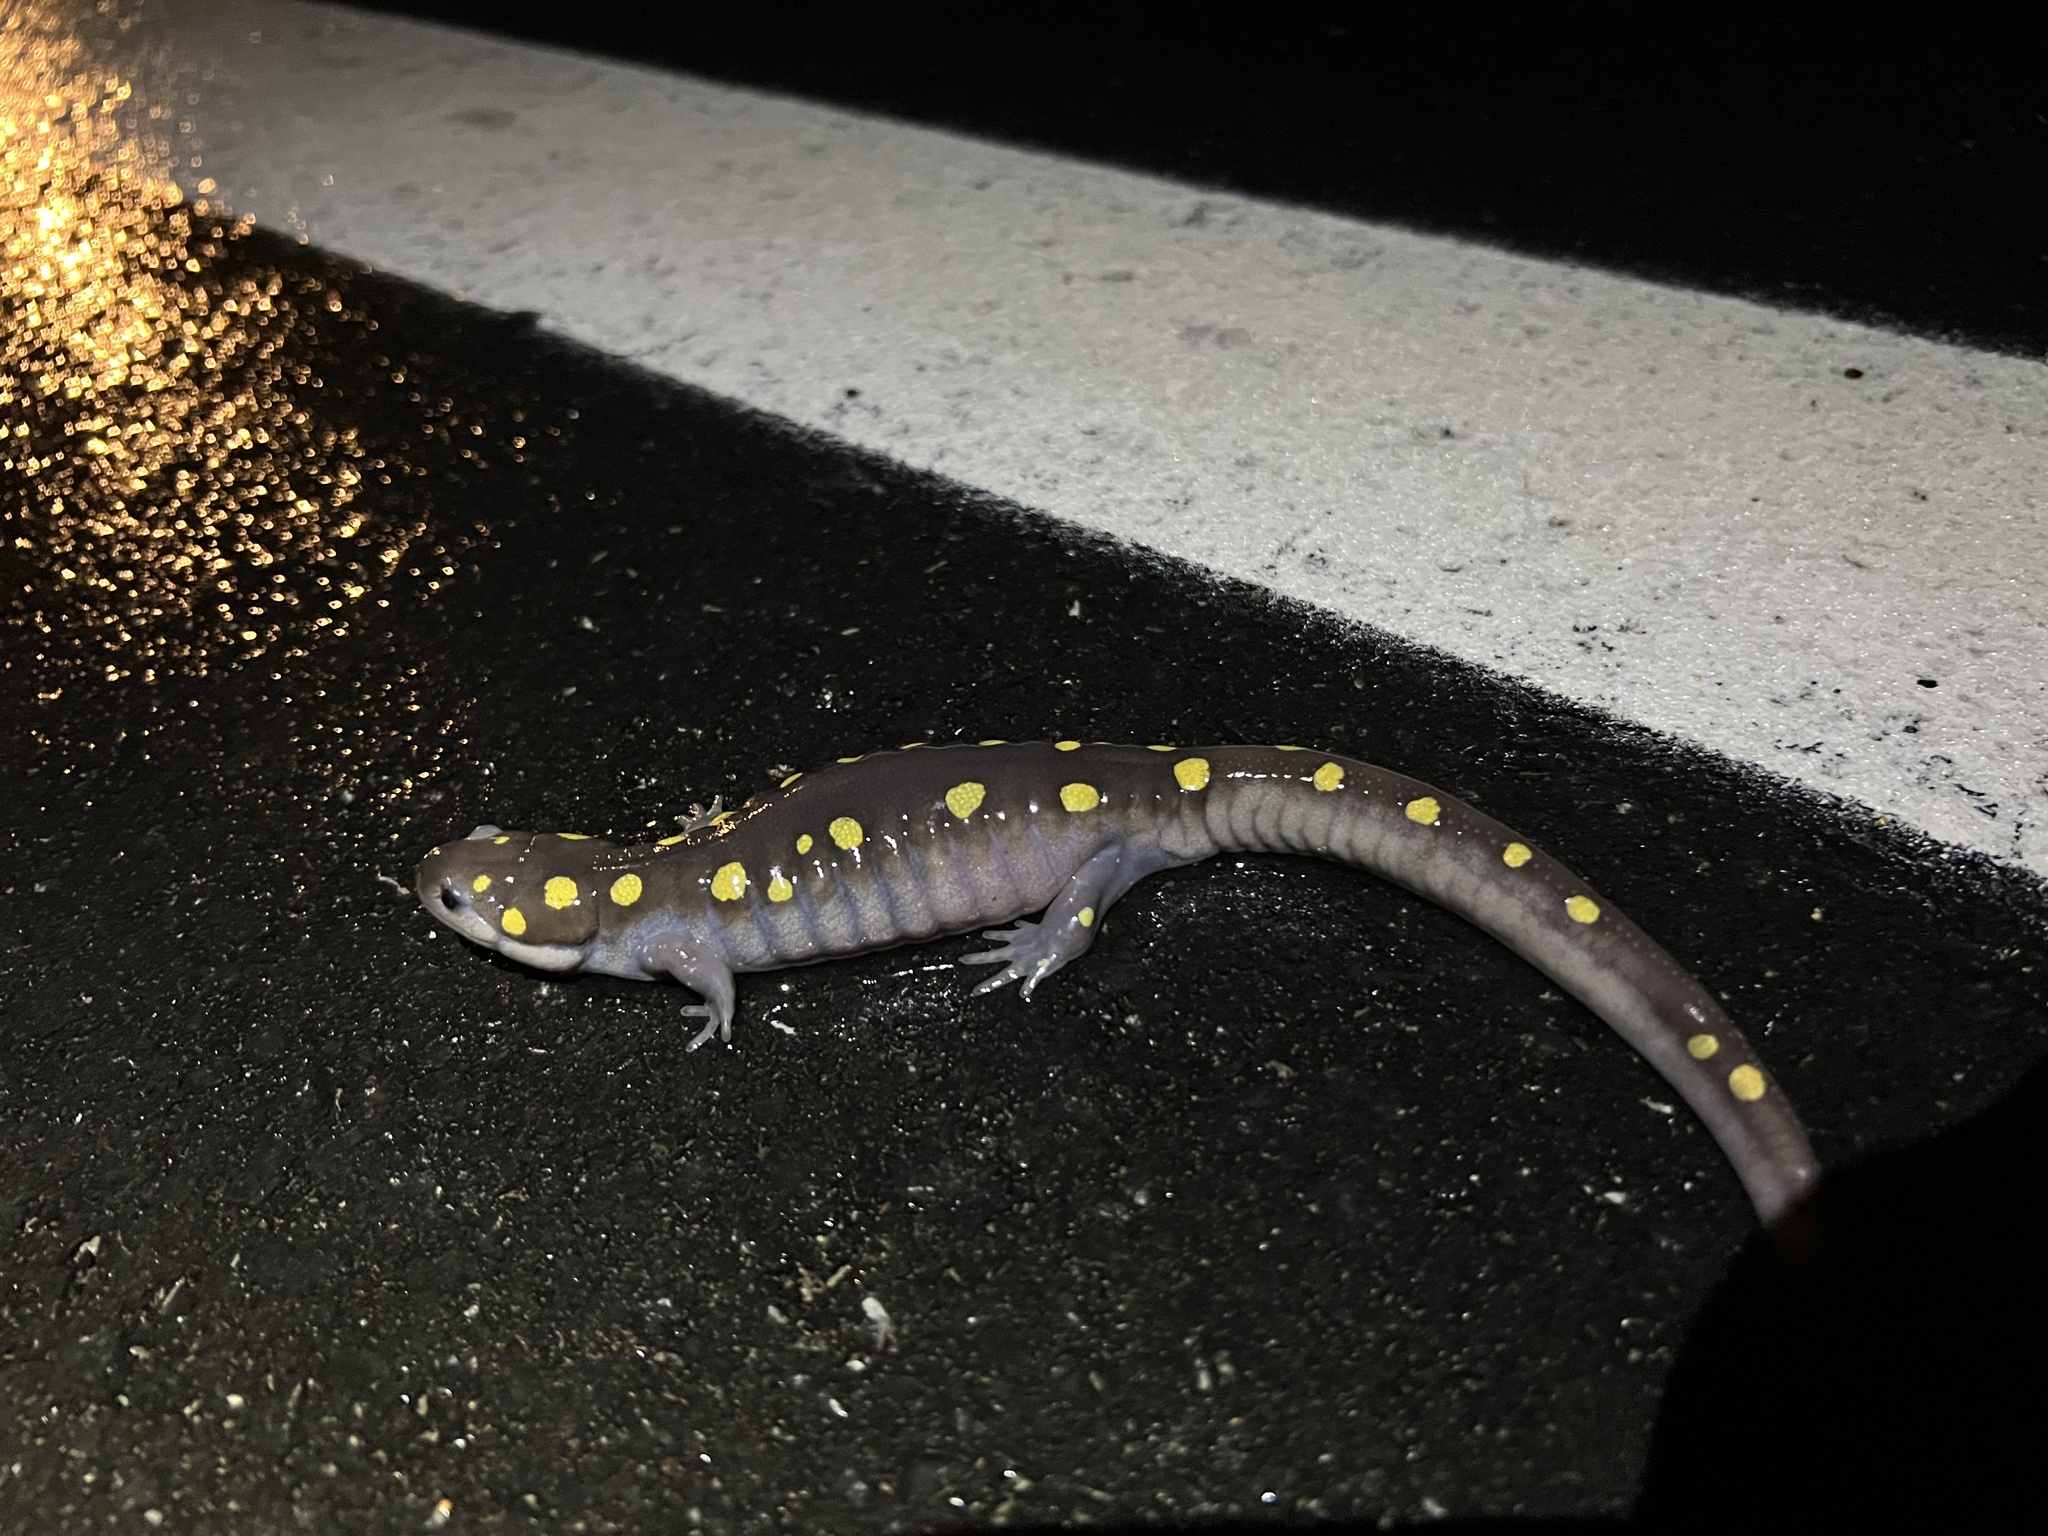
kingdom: Animalia
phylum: Chordata
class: Amphibia
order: Caudata
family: Ambystomatidae
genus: Ambystoma
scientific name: Ambystoma maculatum
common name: Spotted salamander
